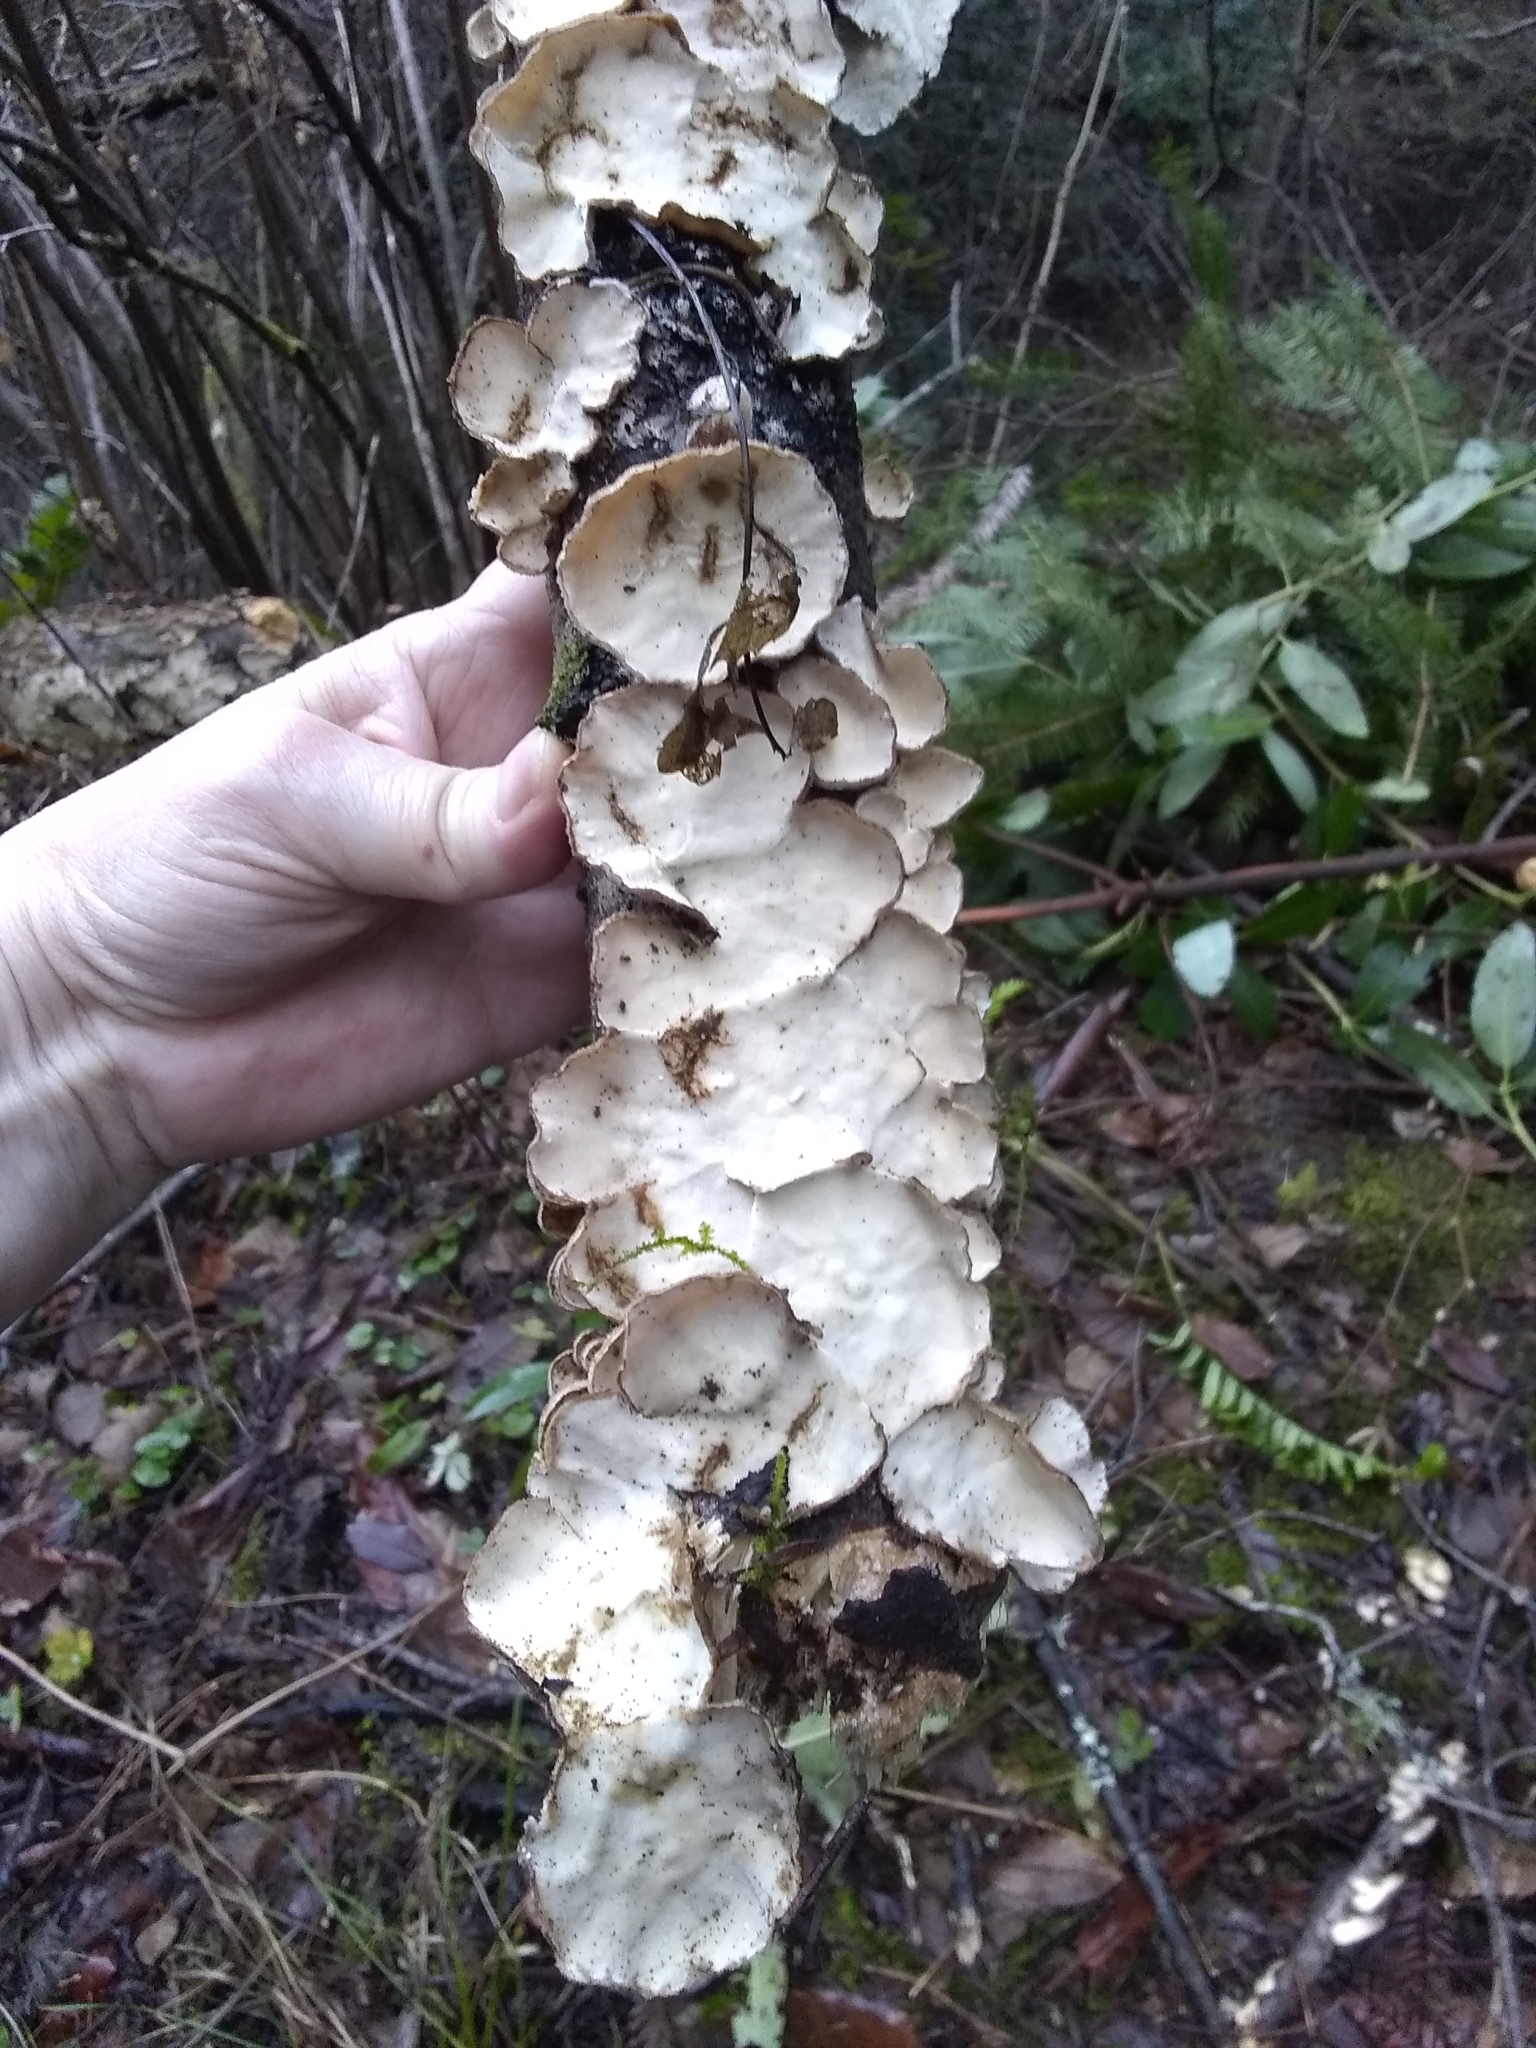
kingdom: Fungi
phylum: Basidiomycota
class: Agaricomycetes
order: Polyporales
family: Polyporaceae
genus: Trametes
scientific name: Trametes versicolor
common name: Turkeytail
